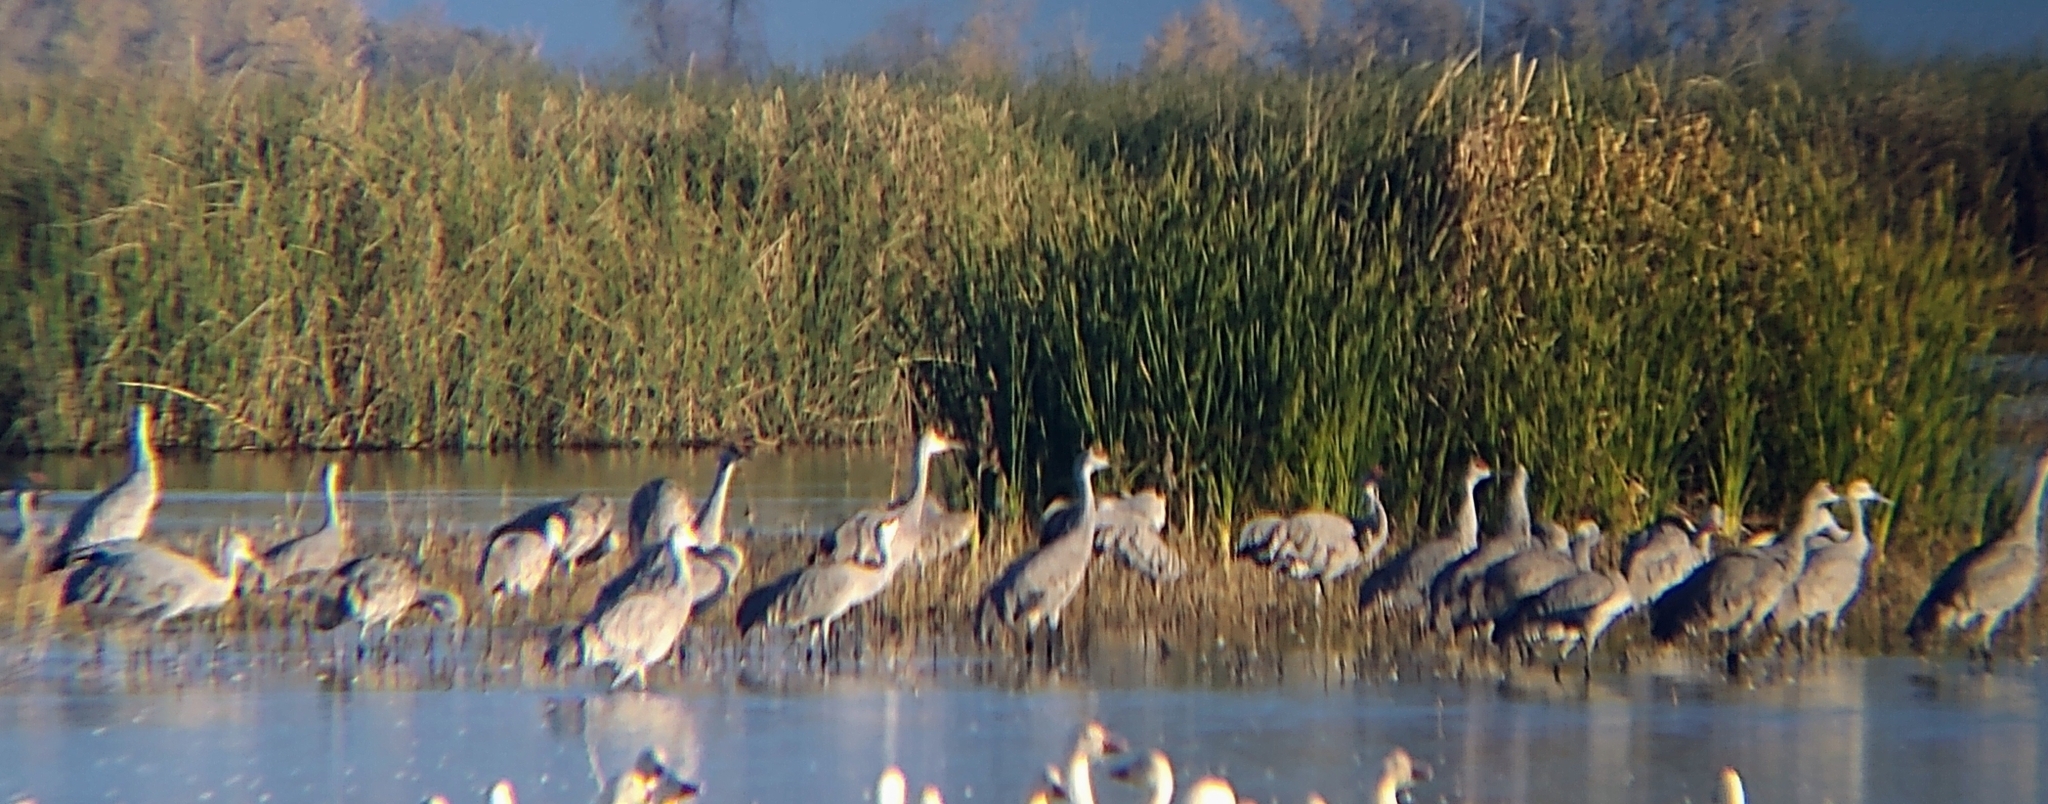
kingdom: Animalia
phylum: Chordata
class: Aves
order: Gruiformes
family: Gruidae
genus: Grus
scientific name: Grus canadensis
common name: Sandhill crane
